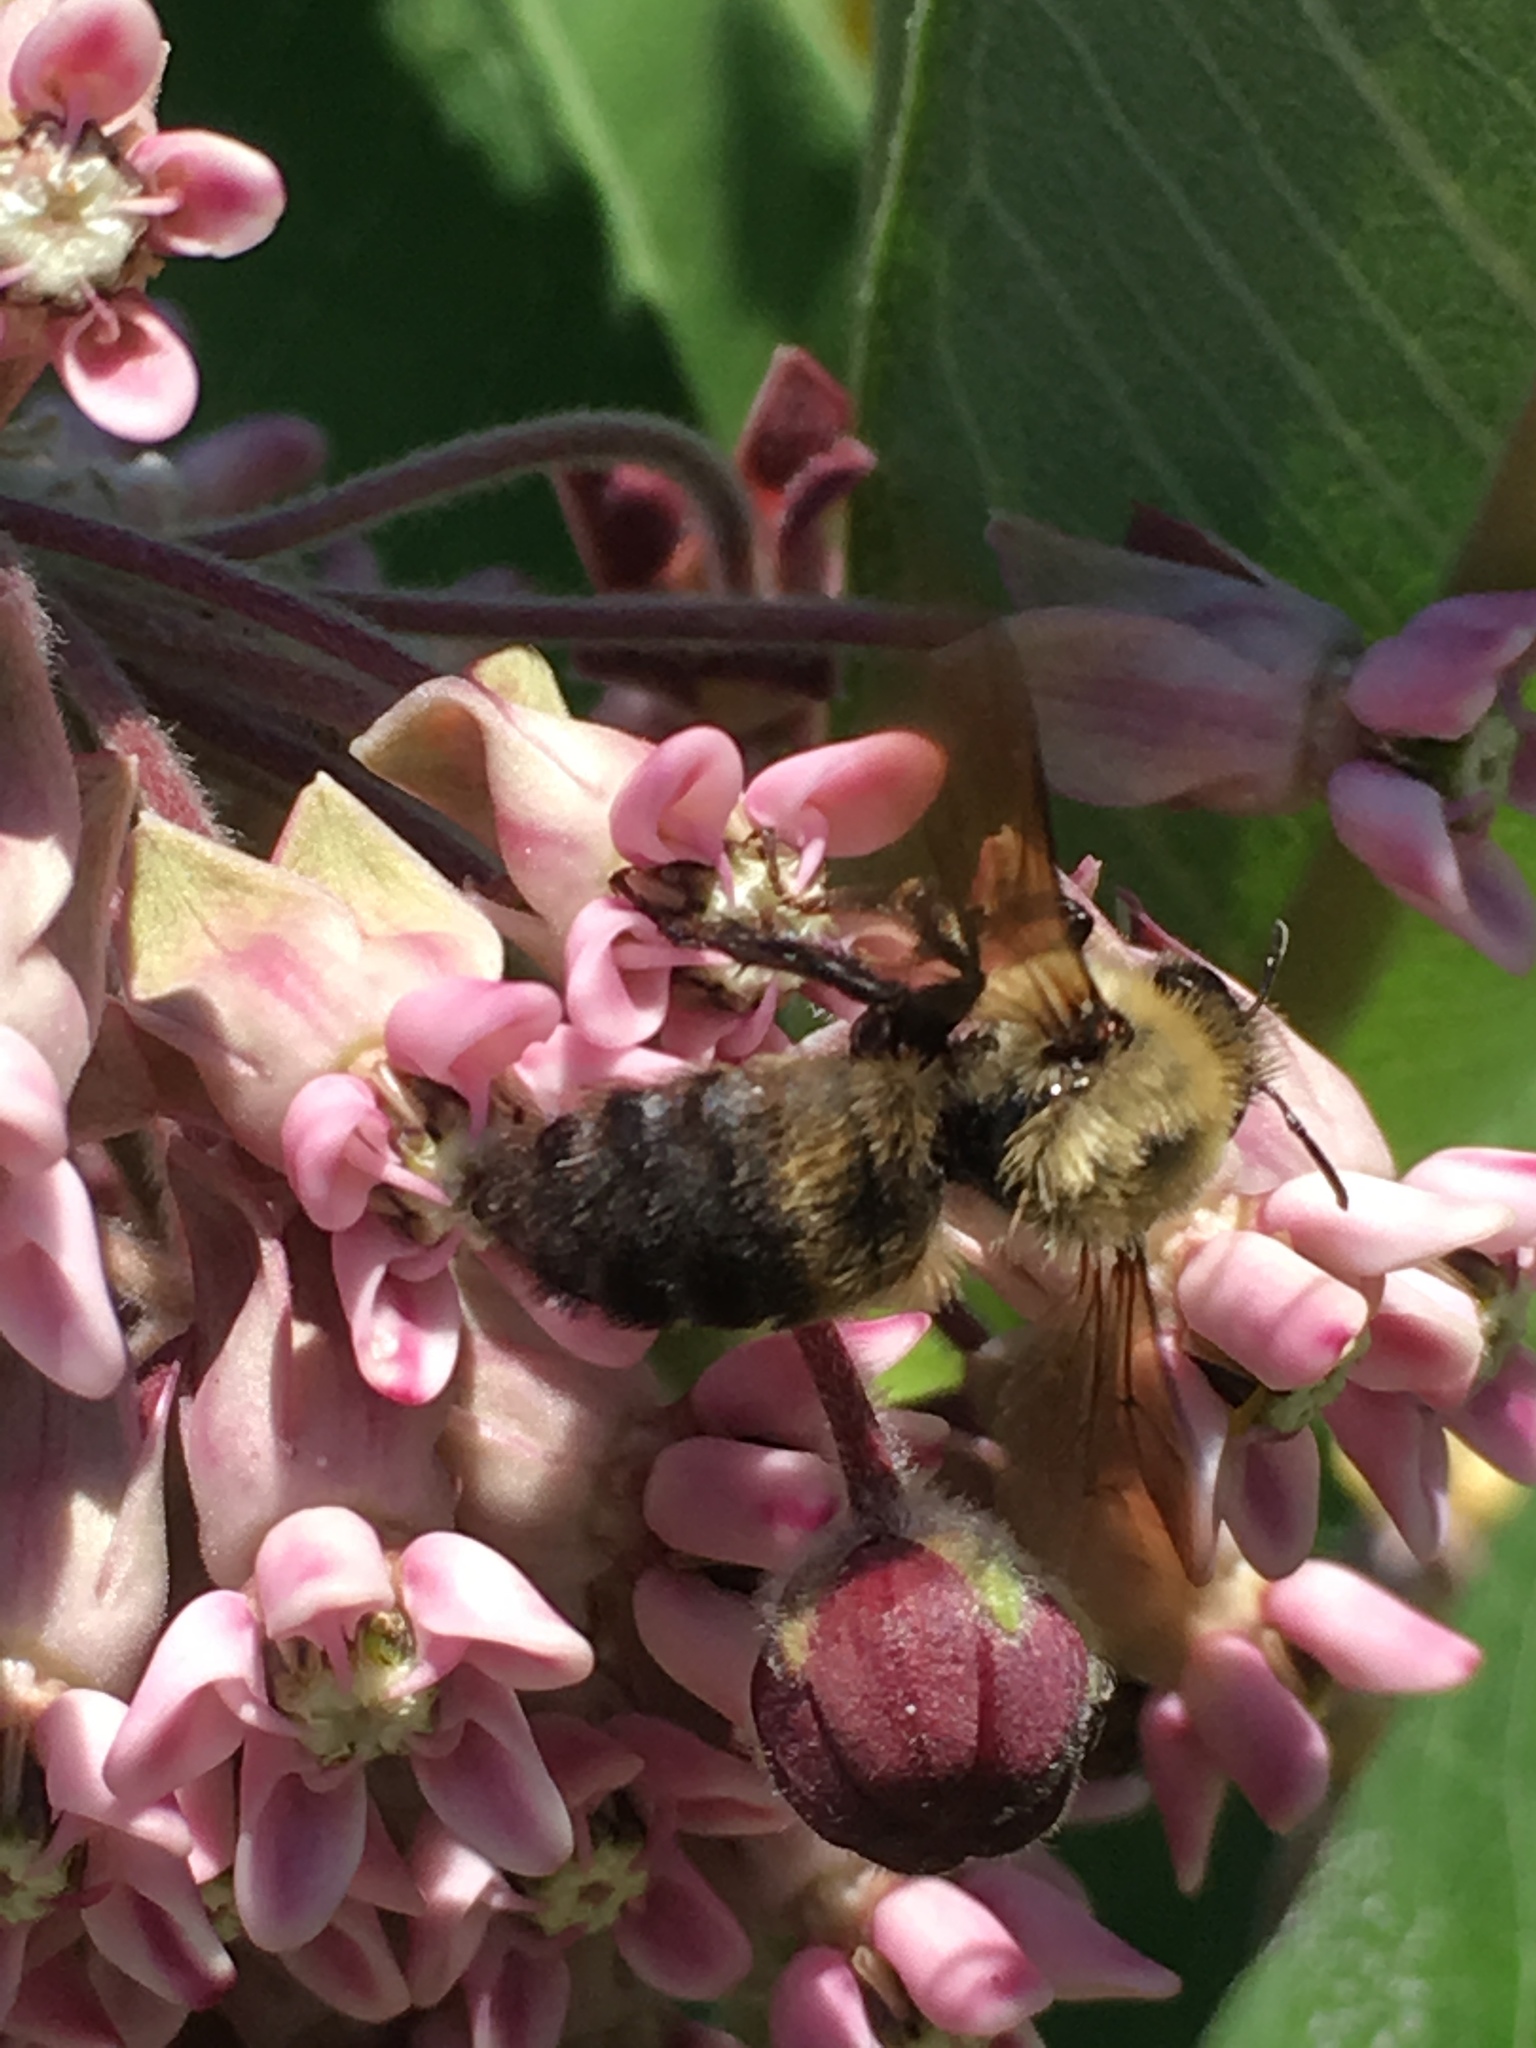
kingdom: Animalia
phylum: Arthropoda
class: Insecta
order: Hymenoptera
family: Apidae
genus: Bombus
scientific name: Bombus griseocollis
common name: Brown-belted bumble bee
